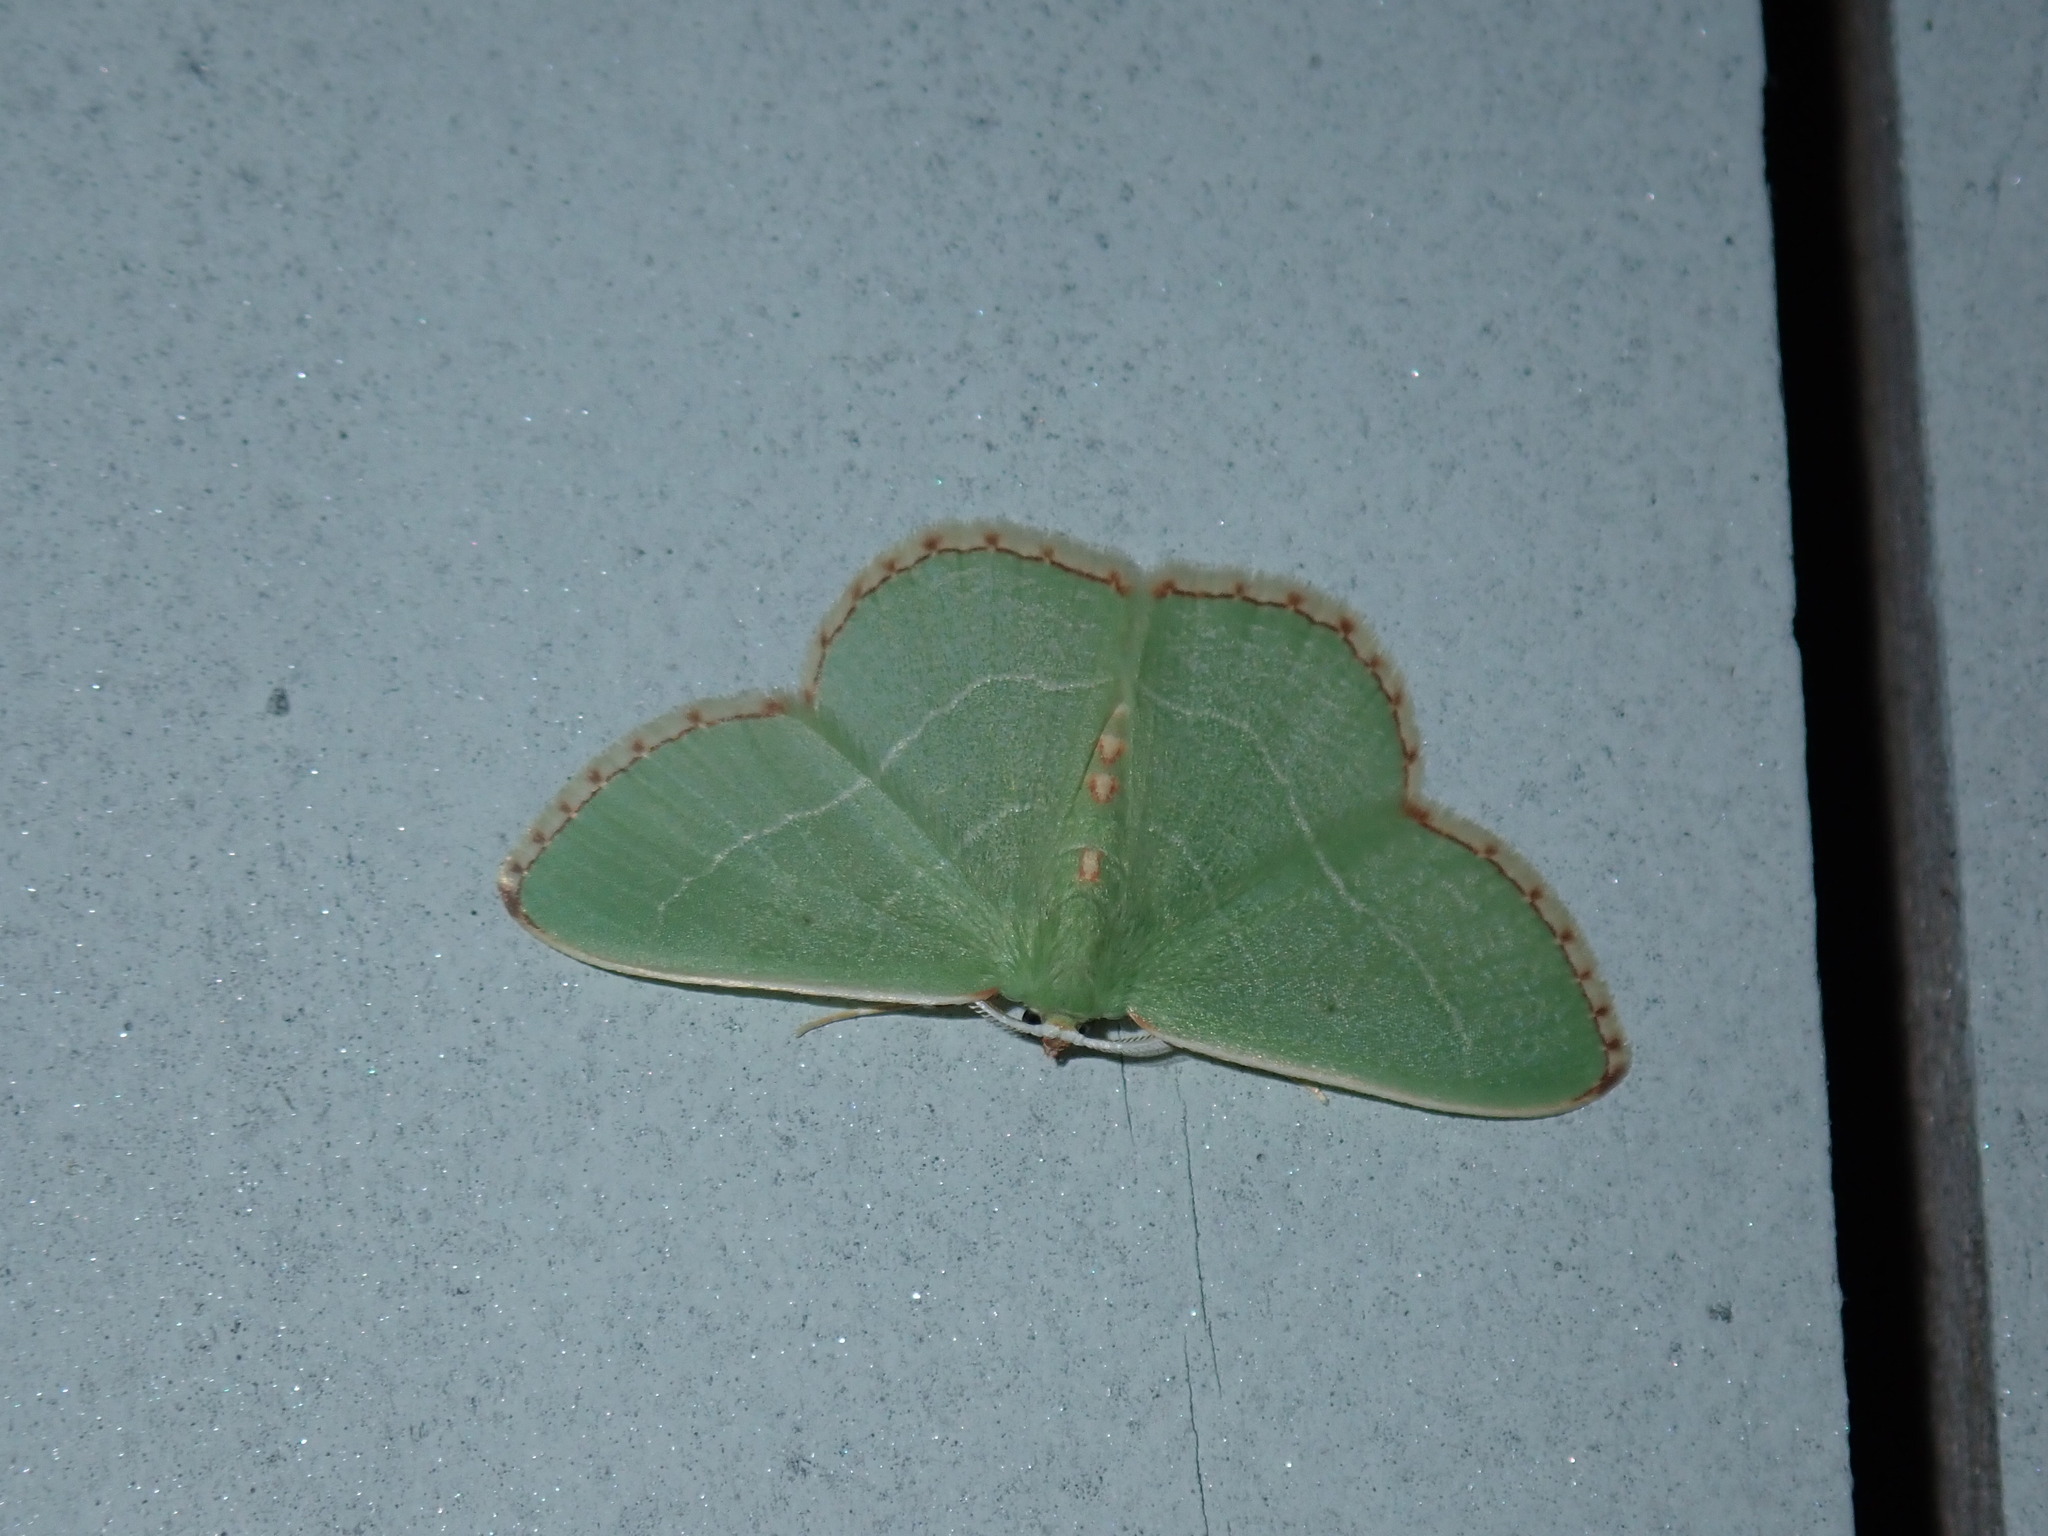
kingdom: Animalia
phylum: Arthropoda
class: Insecta
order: Lepidoptera
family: Geometridae
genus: Nemoria
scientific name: Nemoria bistriaria
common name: Red-fringed emerald
